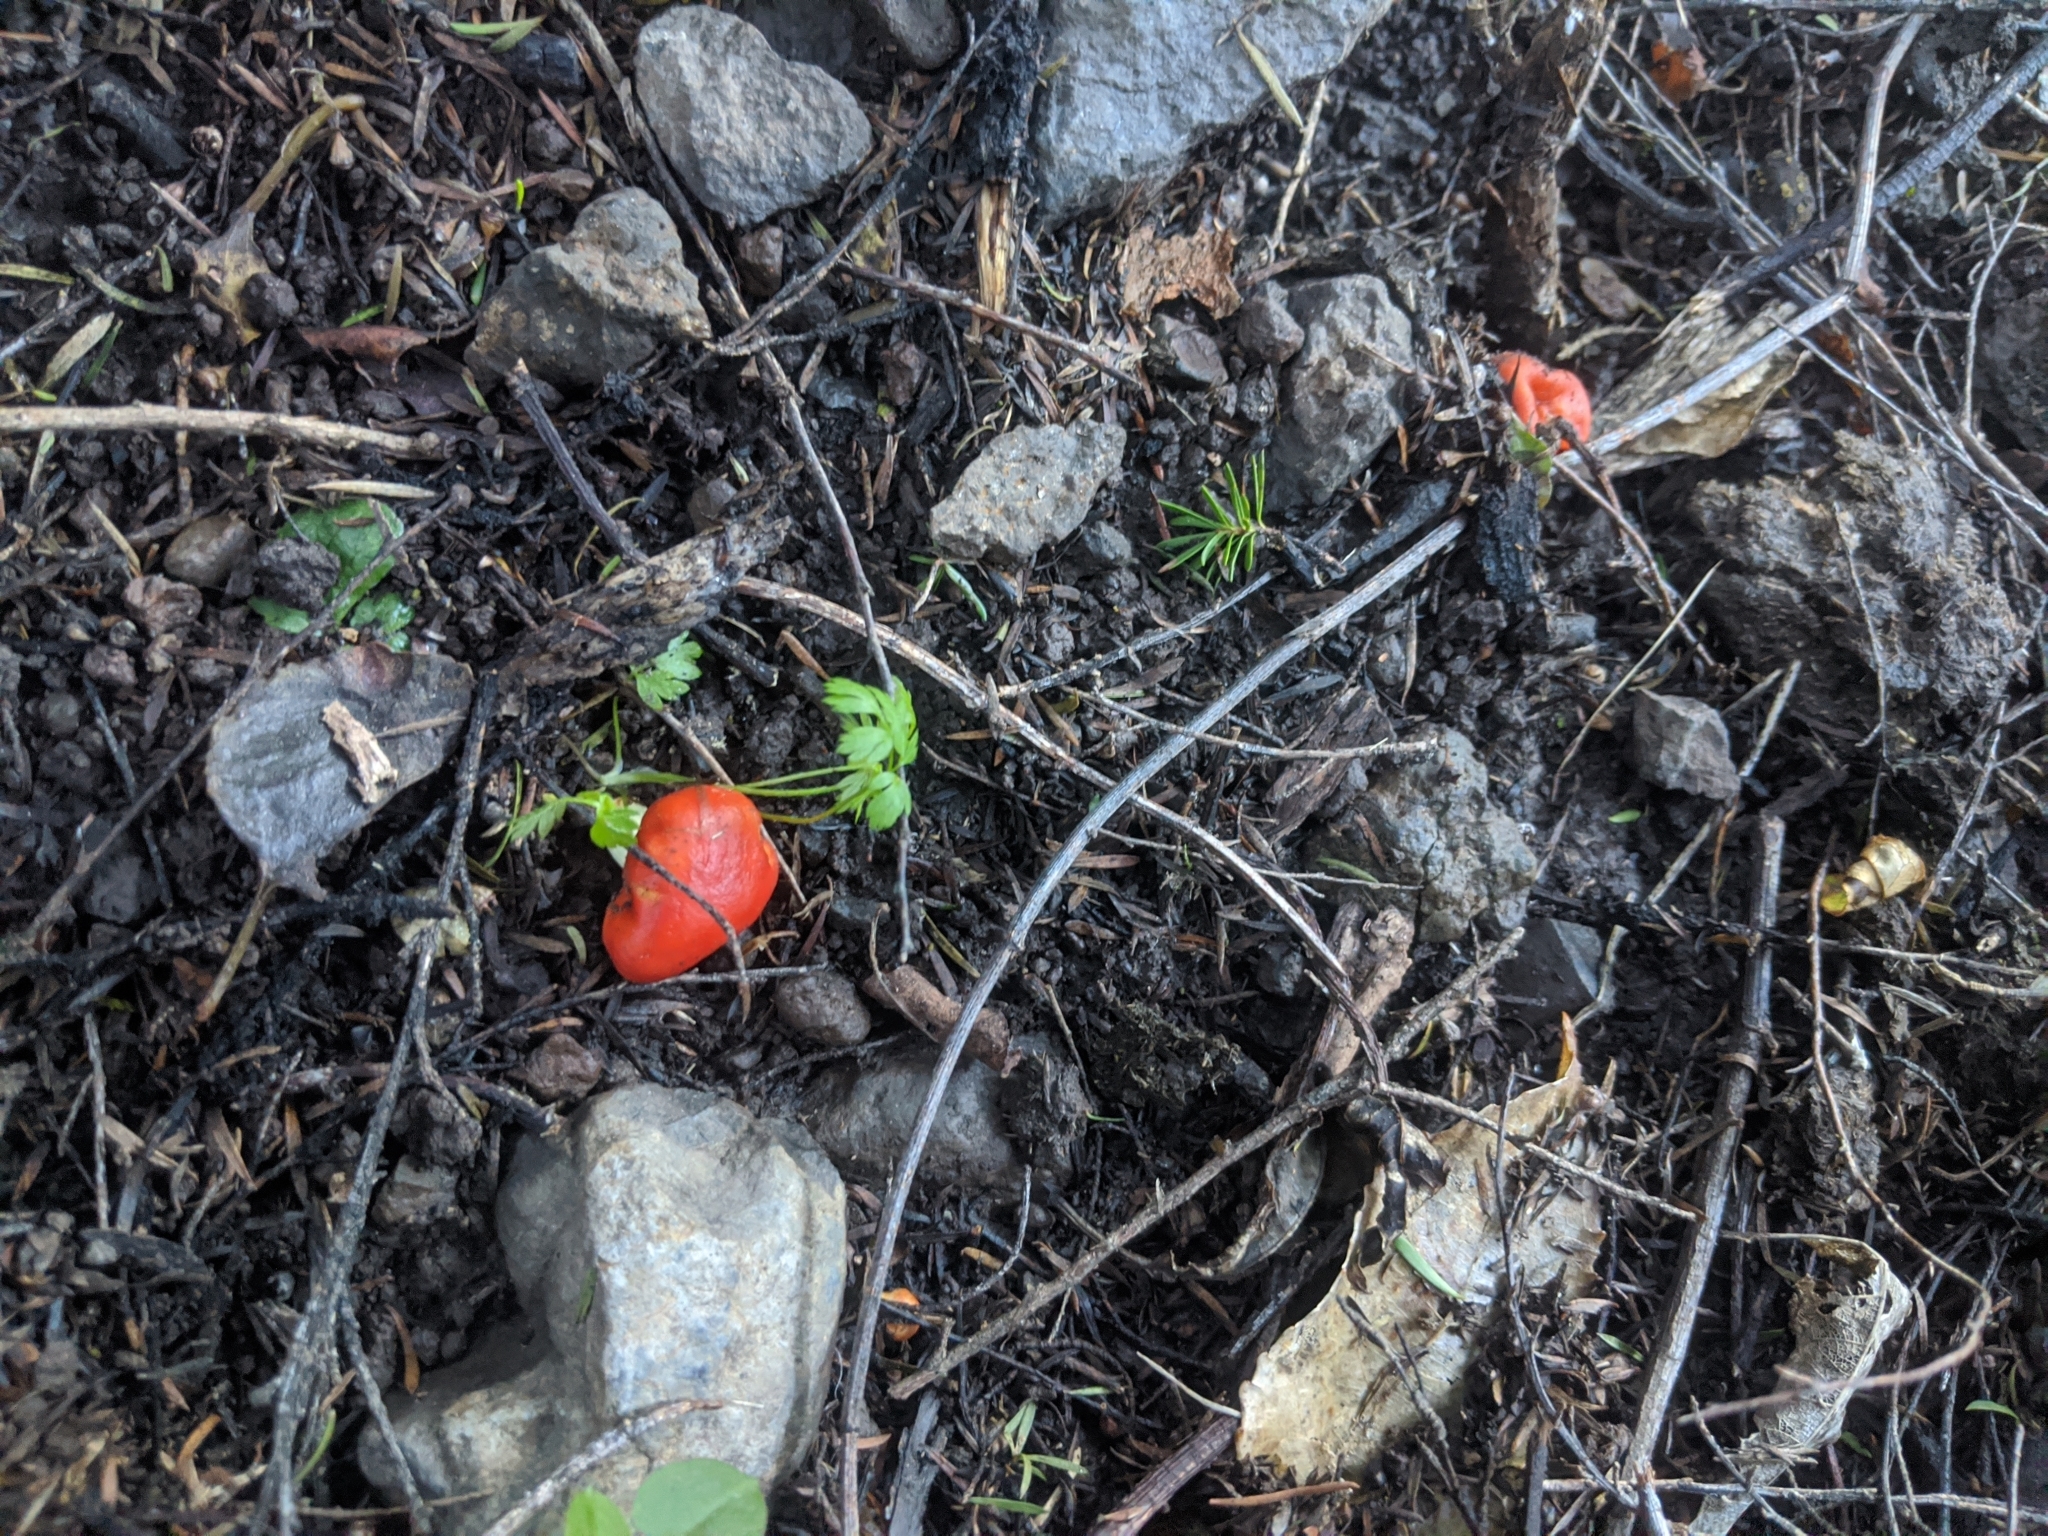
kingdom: Fungi
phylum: Basidiomycota
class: Agaricomycetes
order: Agaricales
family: Strophariaceae
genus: Leratiomyces
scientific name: Leratiomyces erythrocephalus
